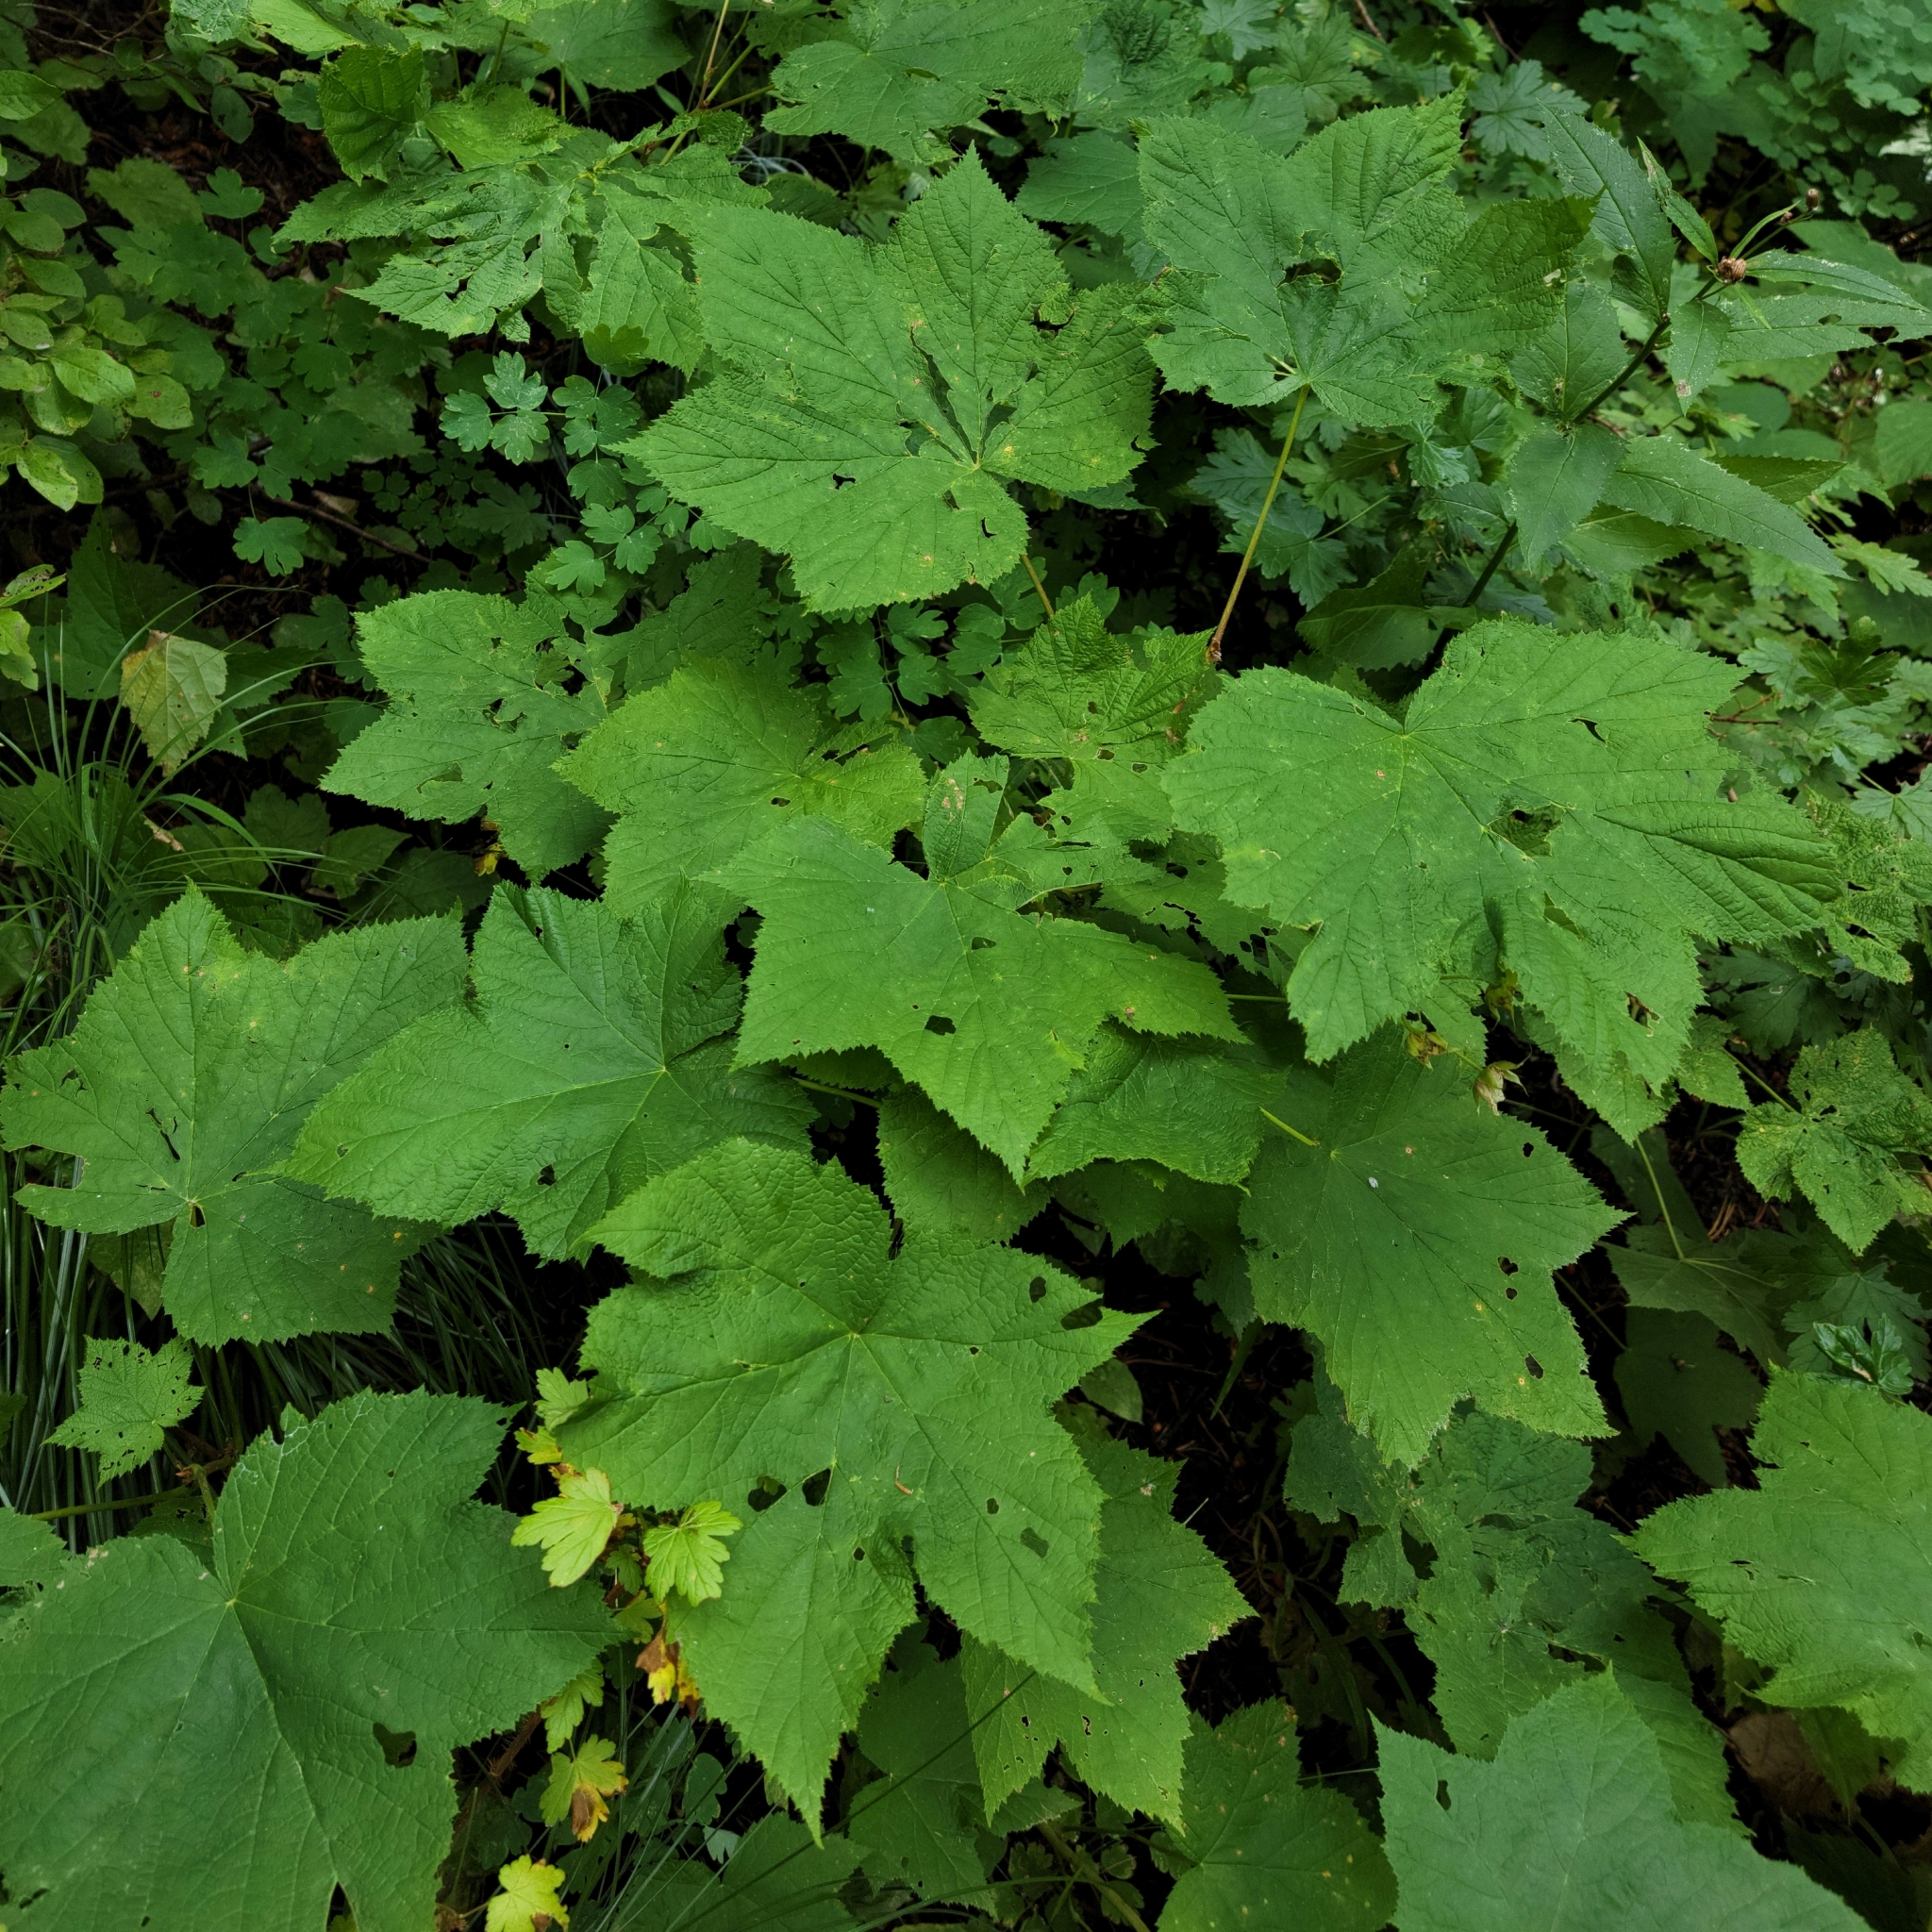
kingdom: Plantae
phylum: Tracheophyta
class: Magnoliopsida
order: Rosales
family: Rosaceae
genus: Rubus
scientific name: Rubus parviflorus
